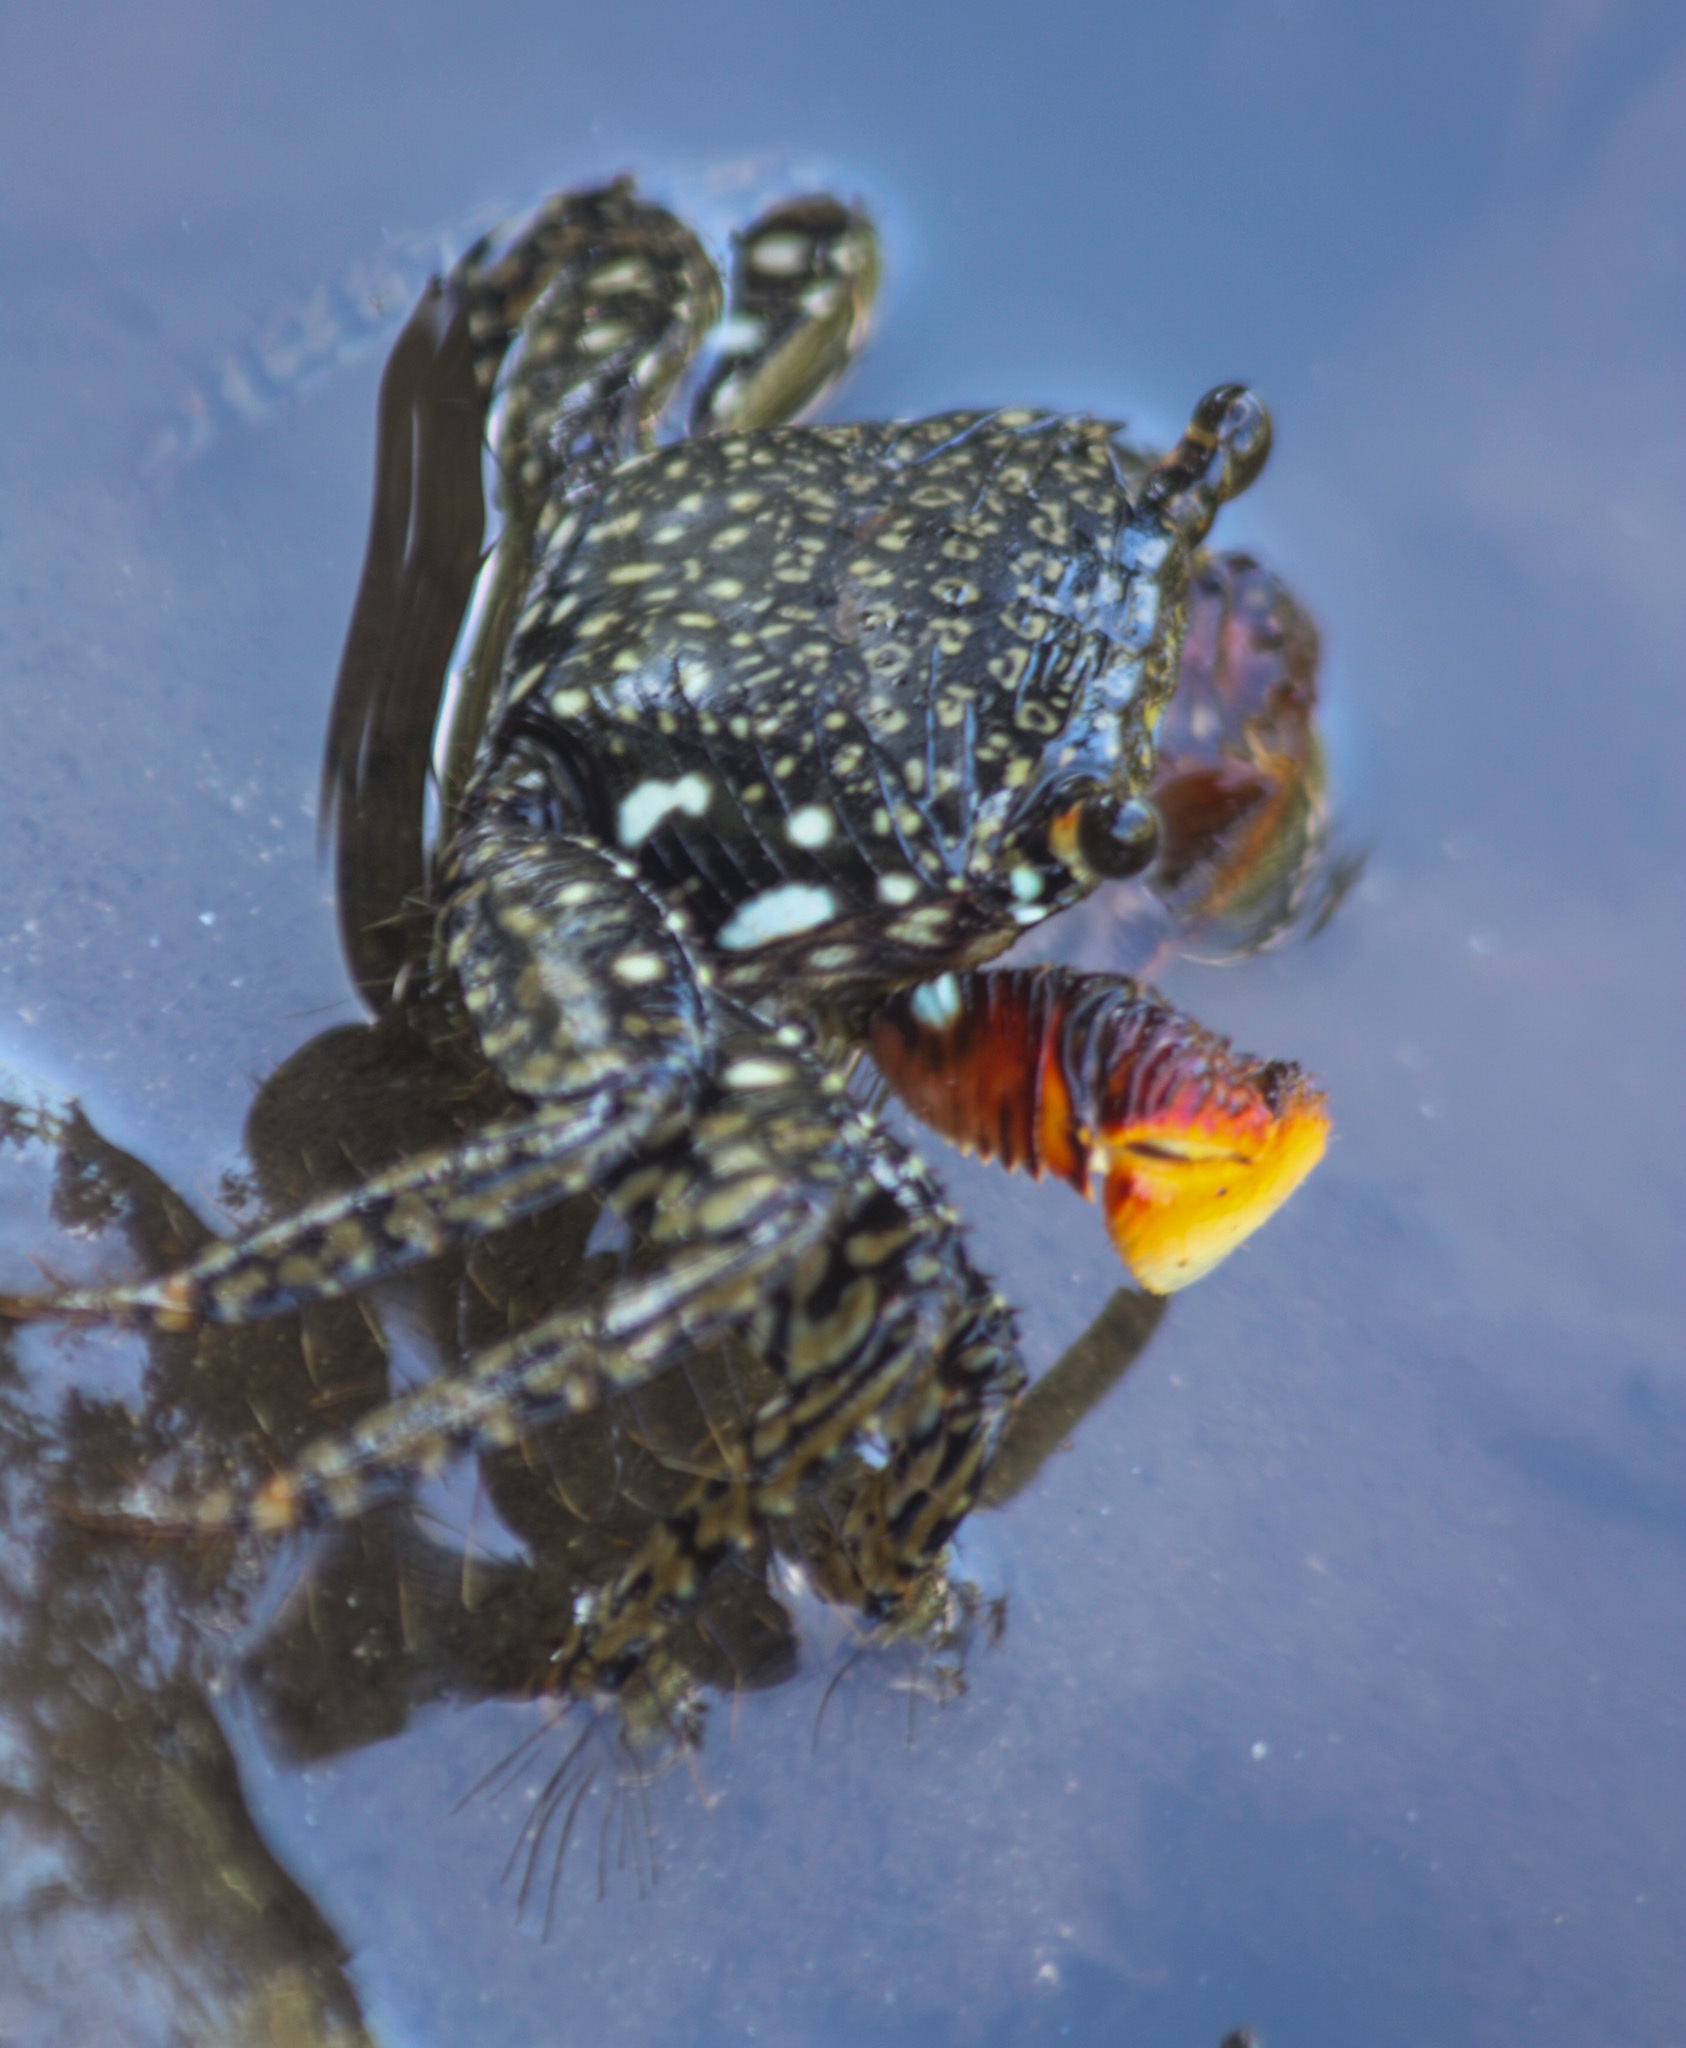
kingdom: Animalia
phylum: Arthropoda
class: Malacostraca
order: Decapoda
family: Grapsidae
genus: Goniopsis
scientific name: Goniopsis pulchra
